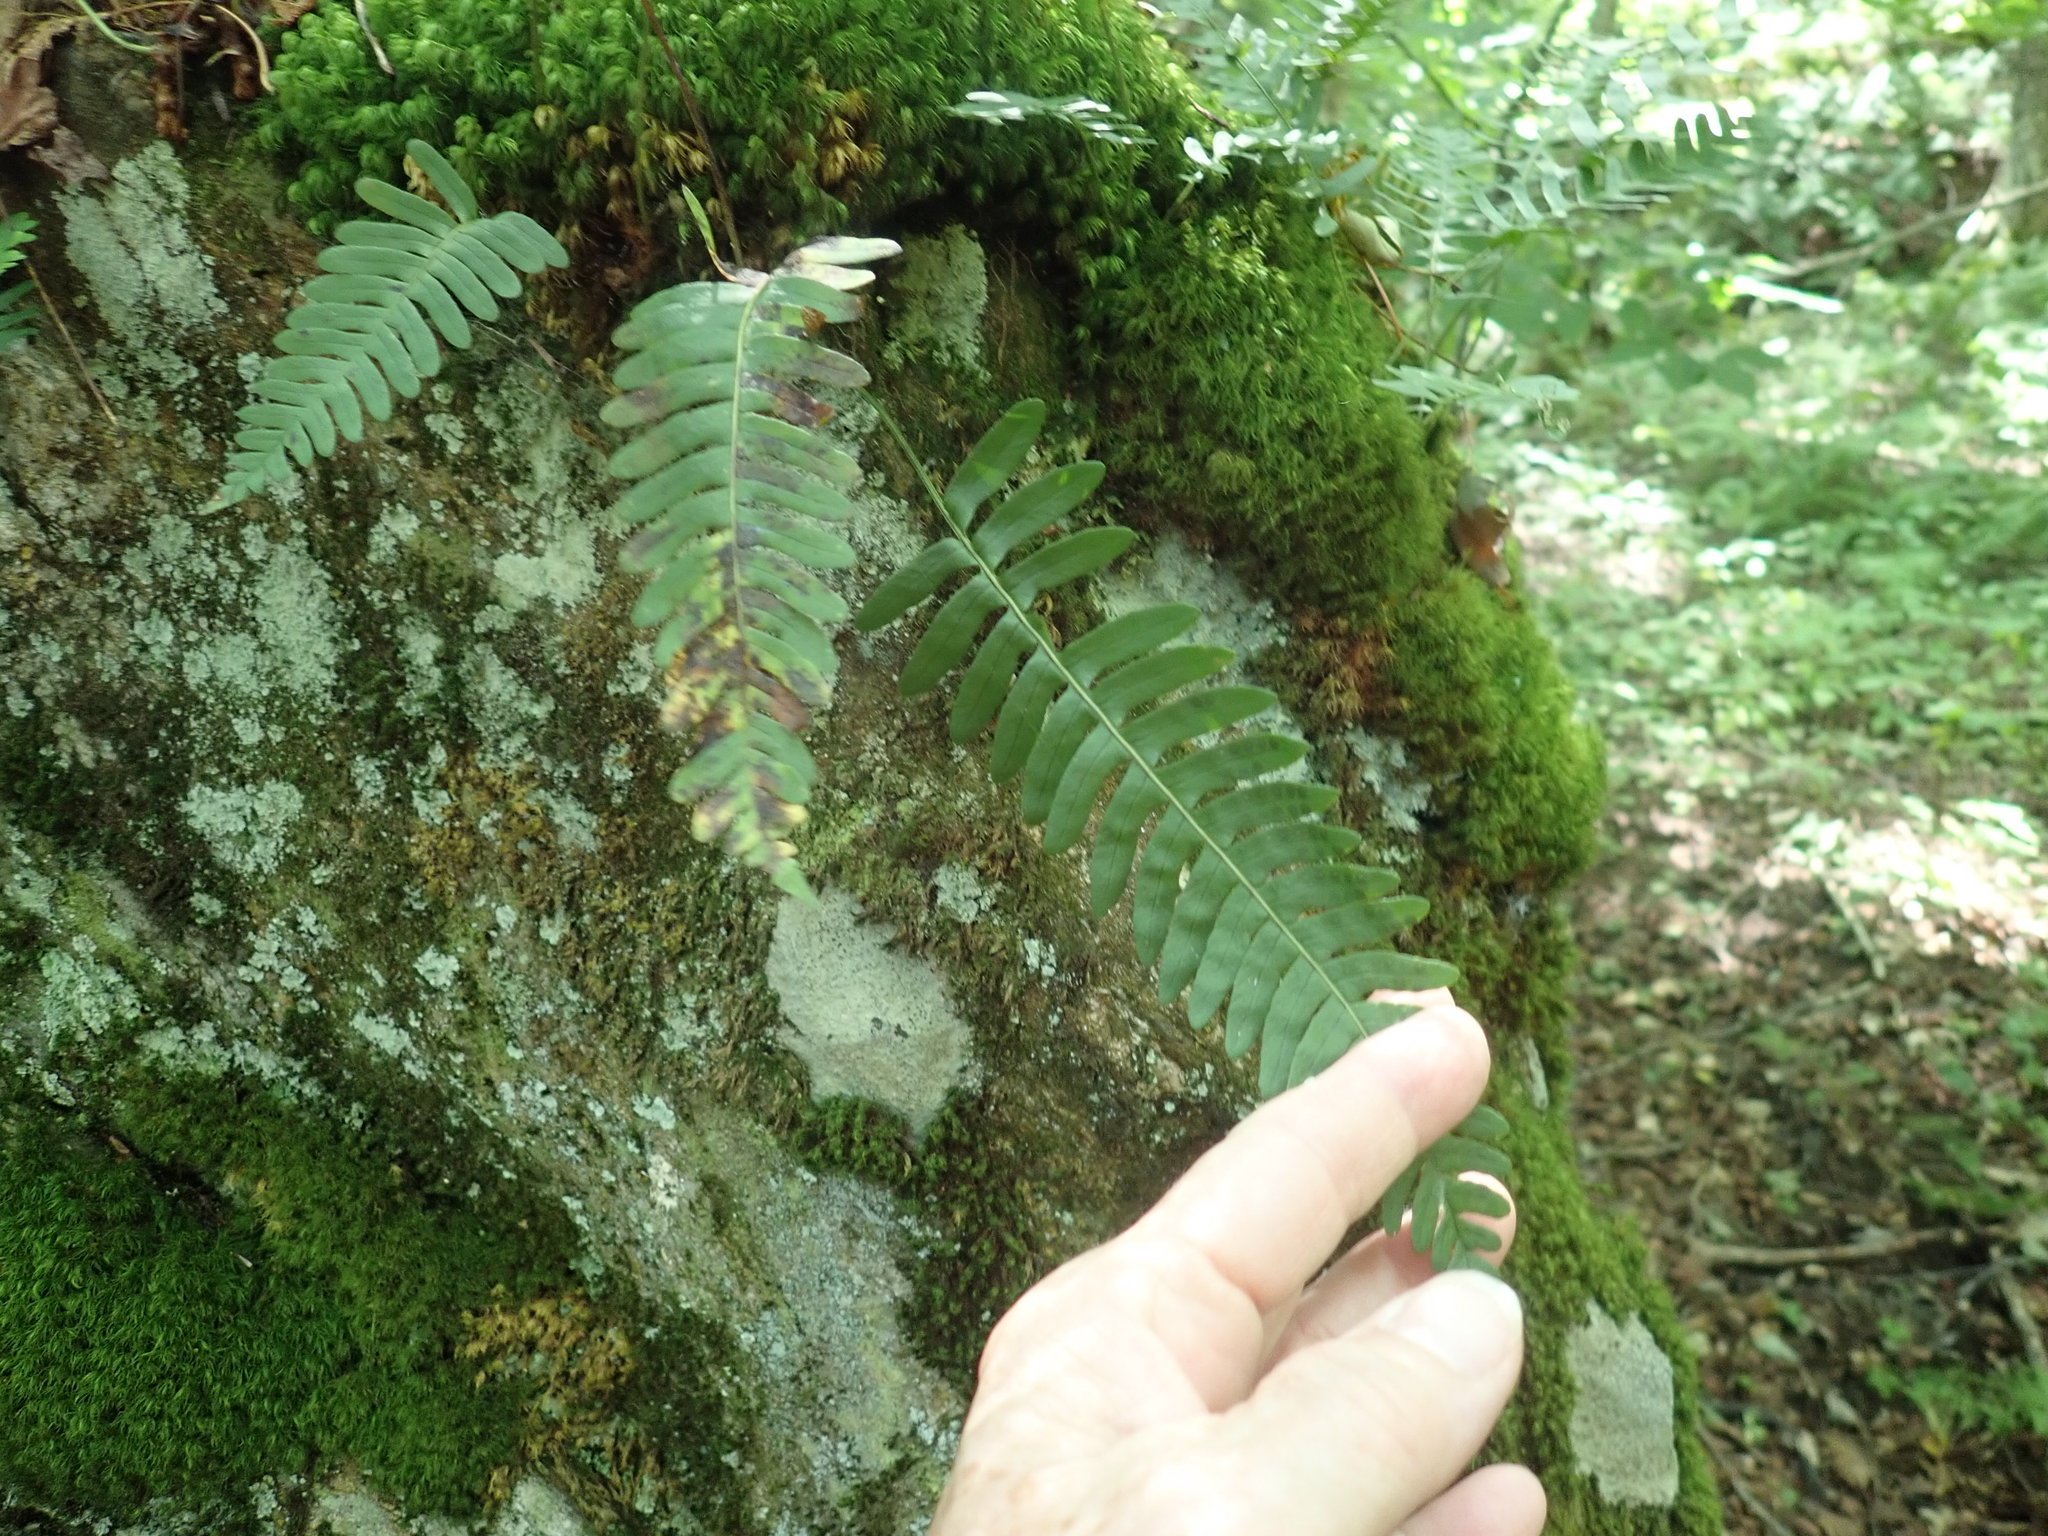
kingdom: Plantae
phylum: Tracheophyta
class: Polypodiopsida
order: Polypodiales
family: Polypodiaceae
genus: Polypodium
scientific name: Polypodium
